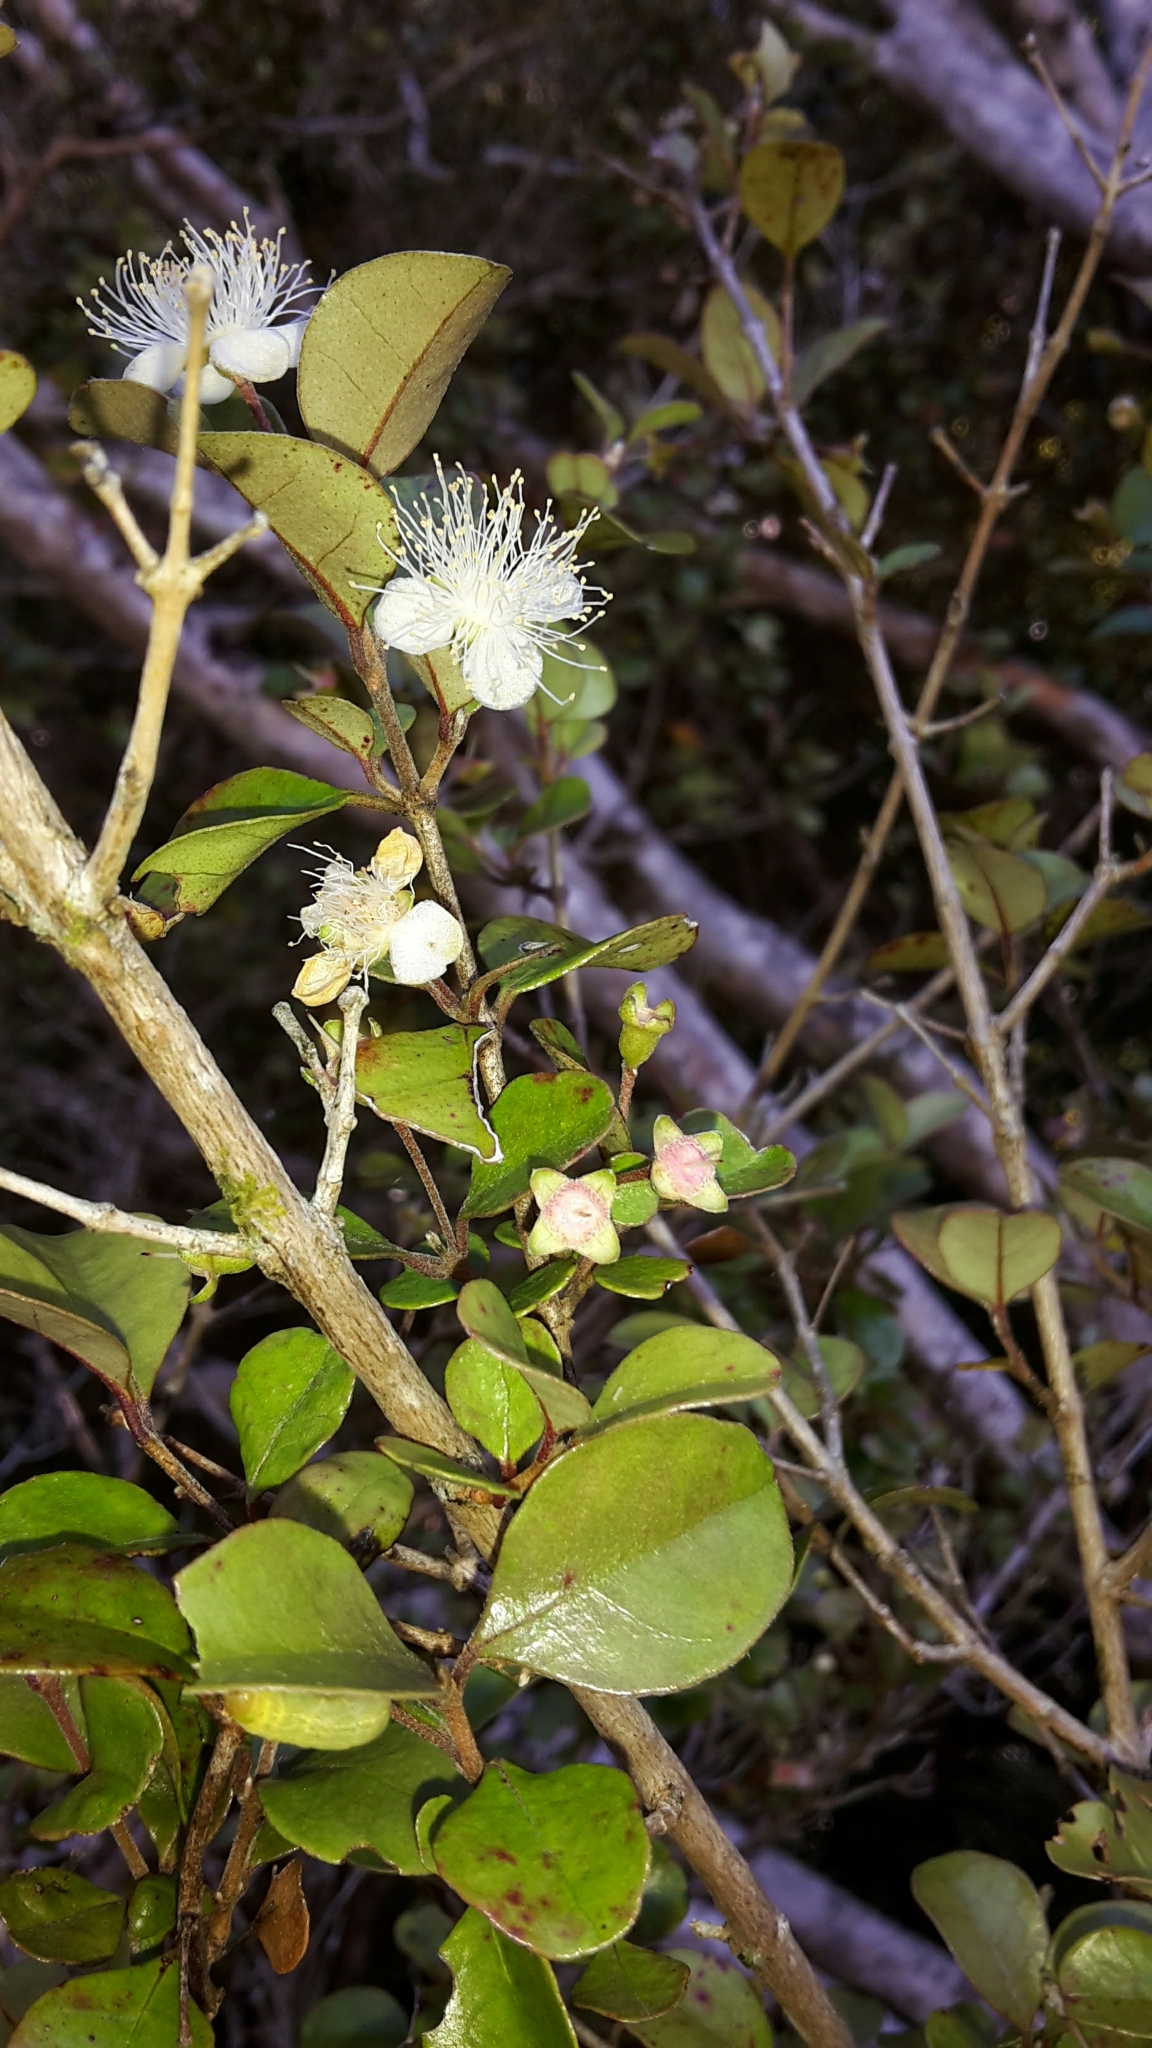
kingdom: Plantae
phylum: Tracheophyta
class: Magnoliopsida
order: Myrtales
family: Myrtaceae
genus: Lophomyrtus
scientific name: Lophomyrtus ralphii
